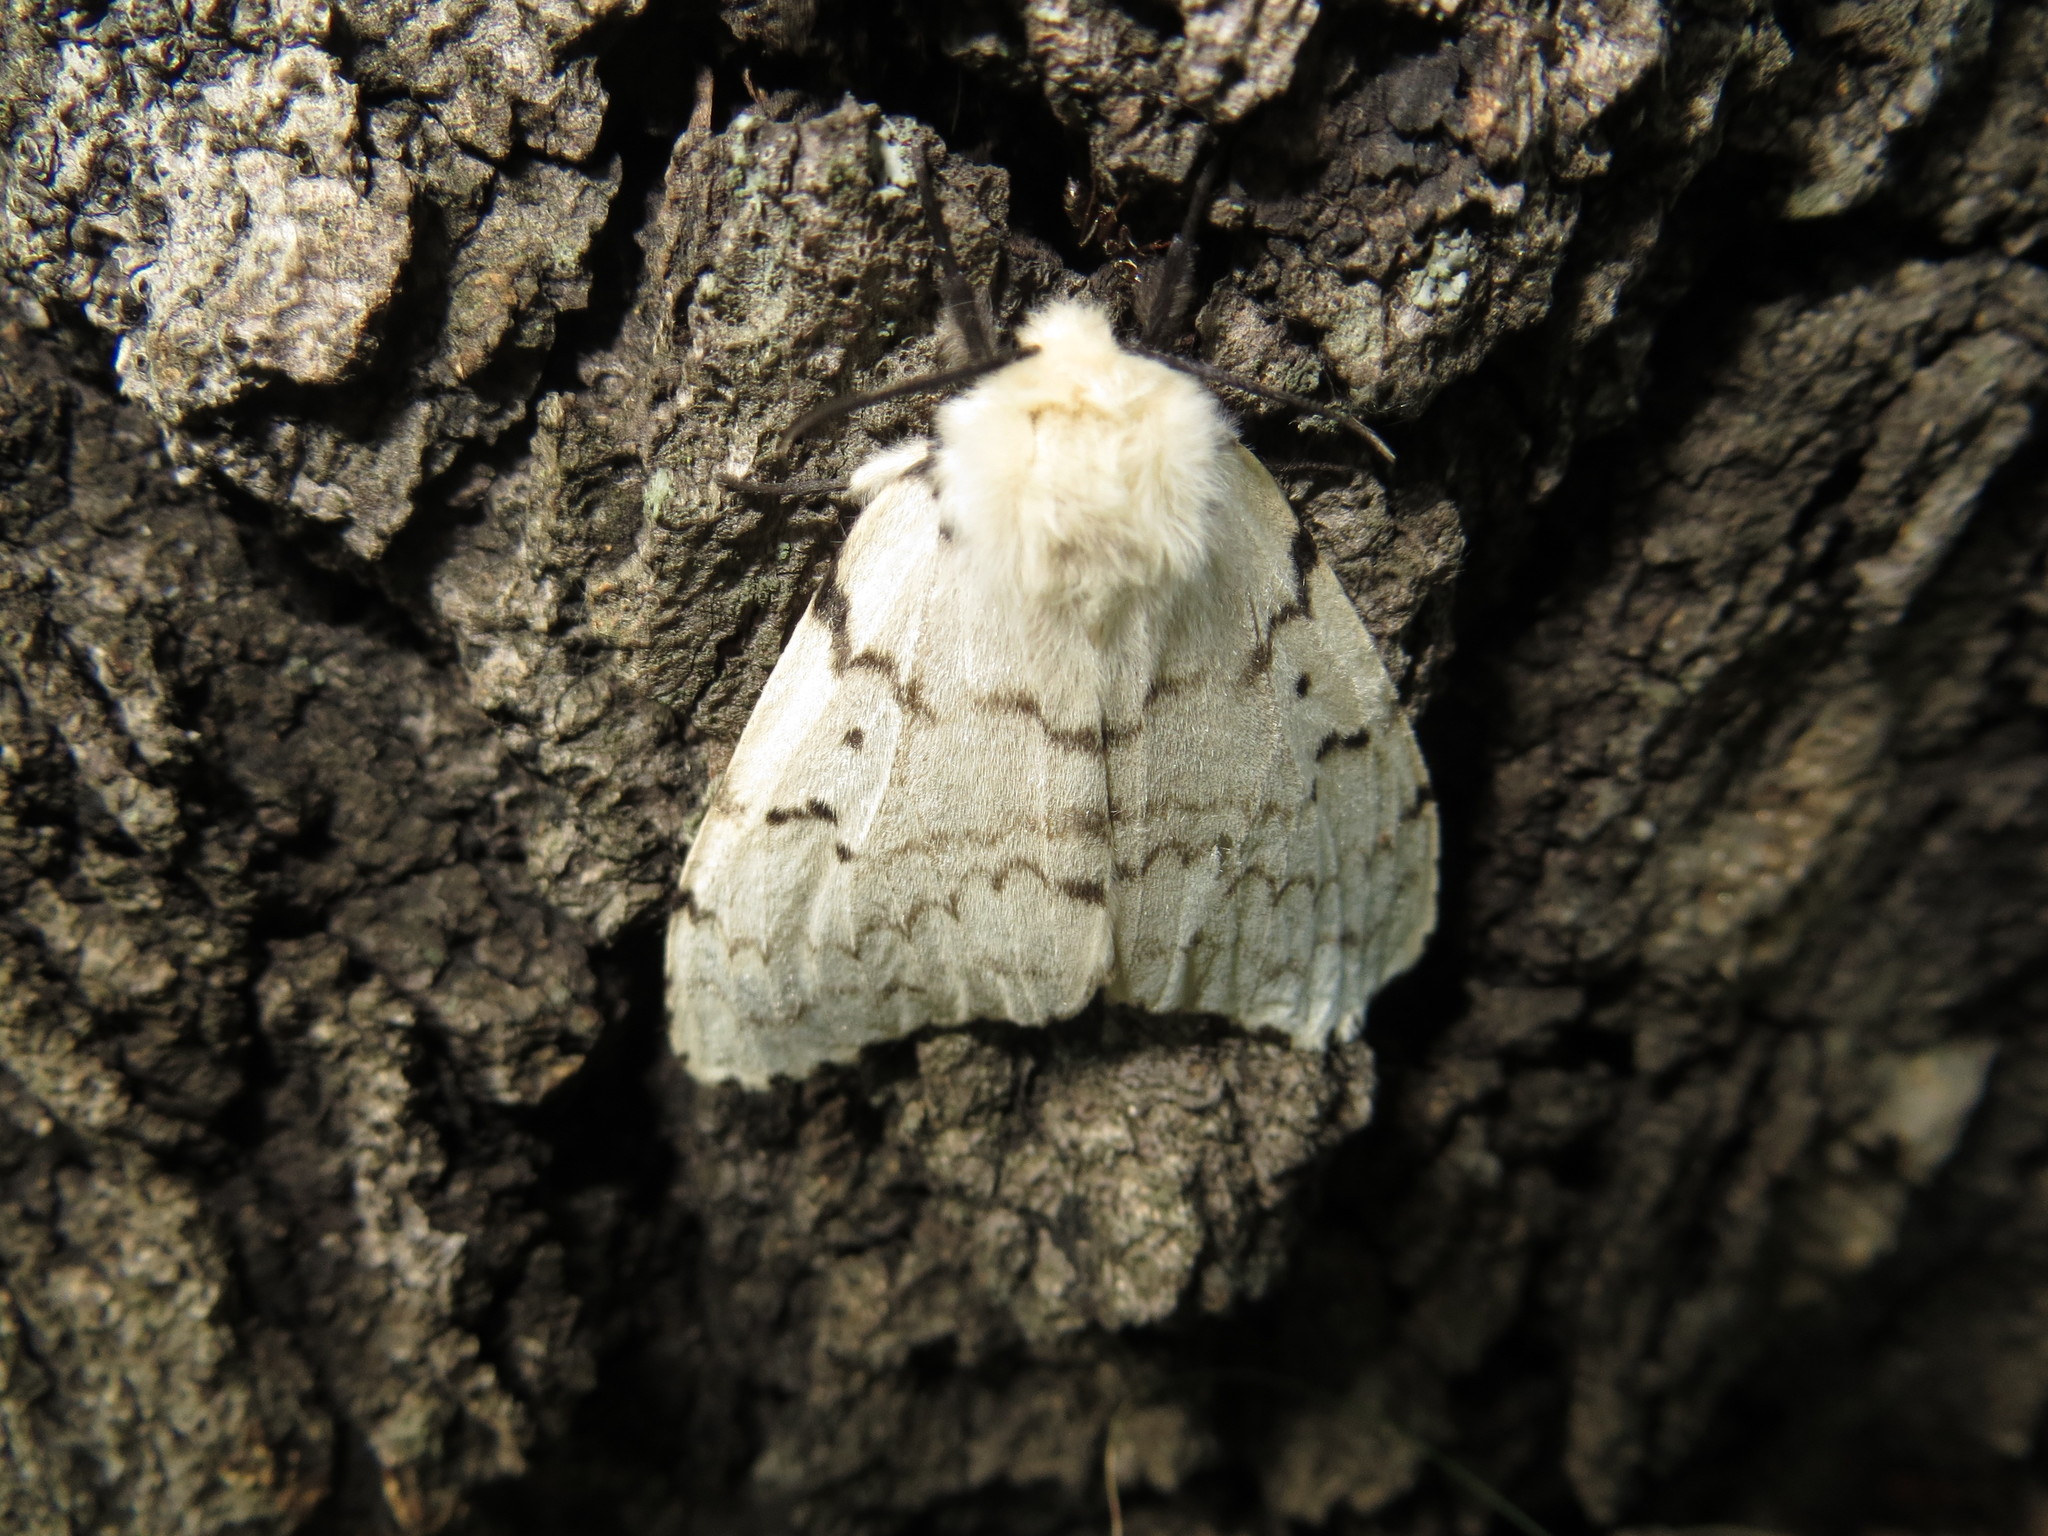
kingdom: Animalia
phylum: Arthropoda
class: Insecta
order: Lepidoptera
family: Erebidae
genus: Lymantria
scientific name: Lymantria dispar
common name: Gypsy moth
